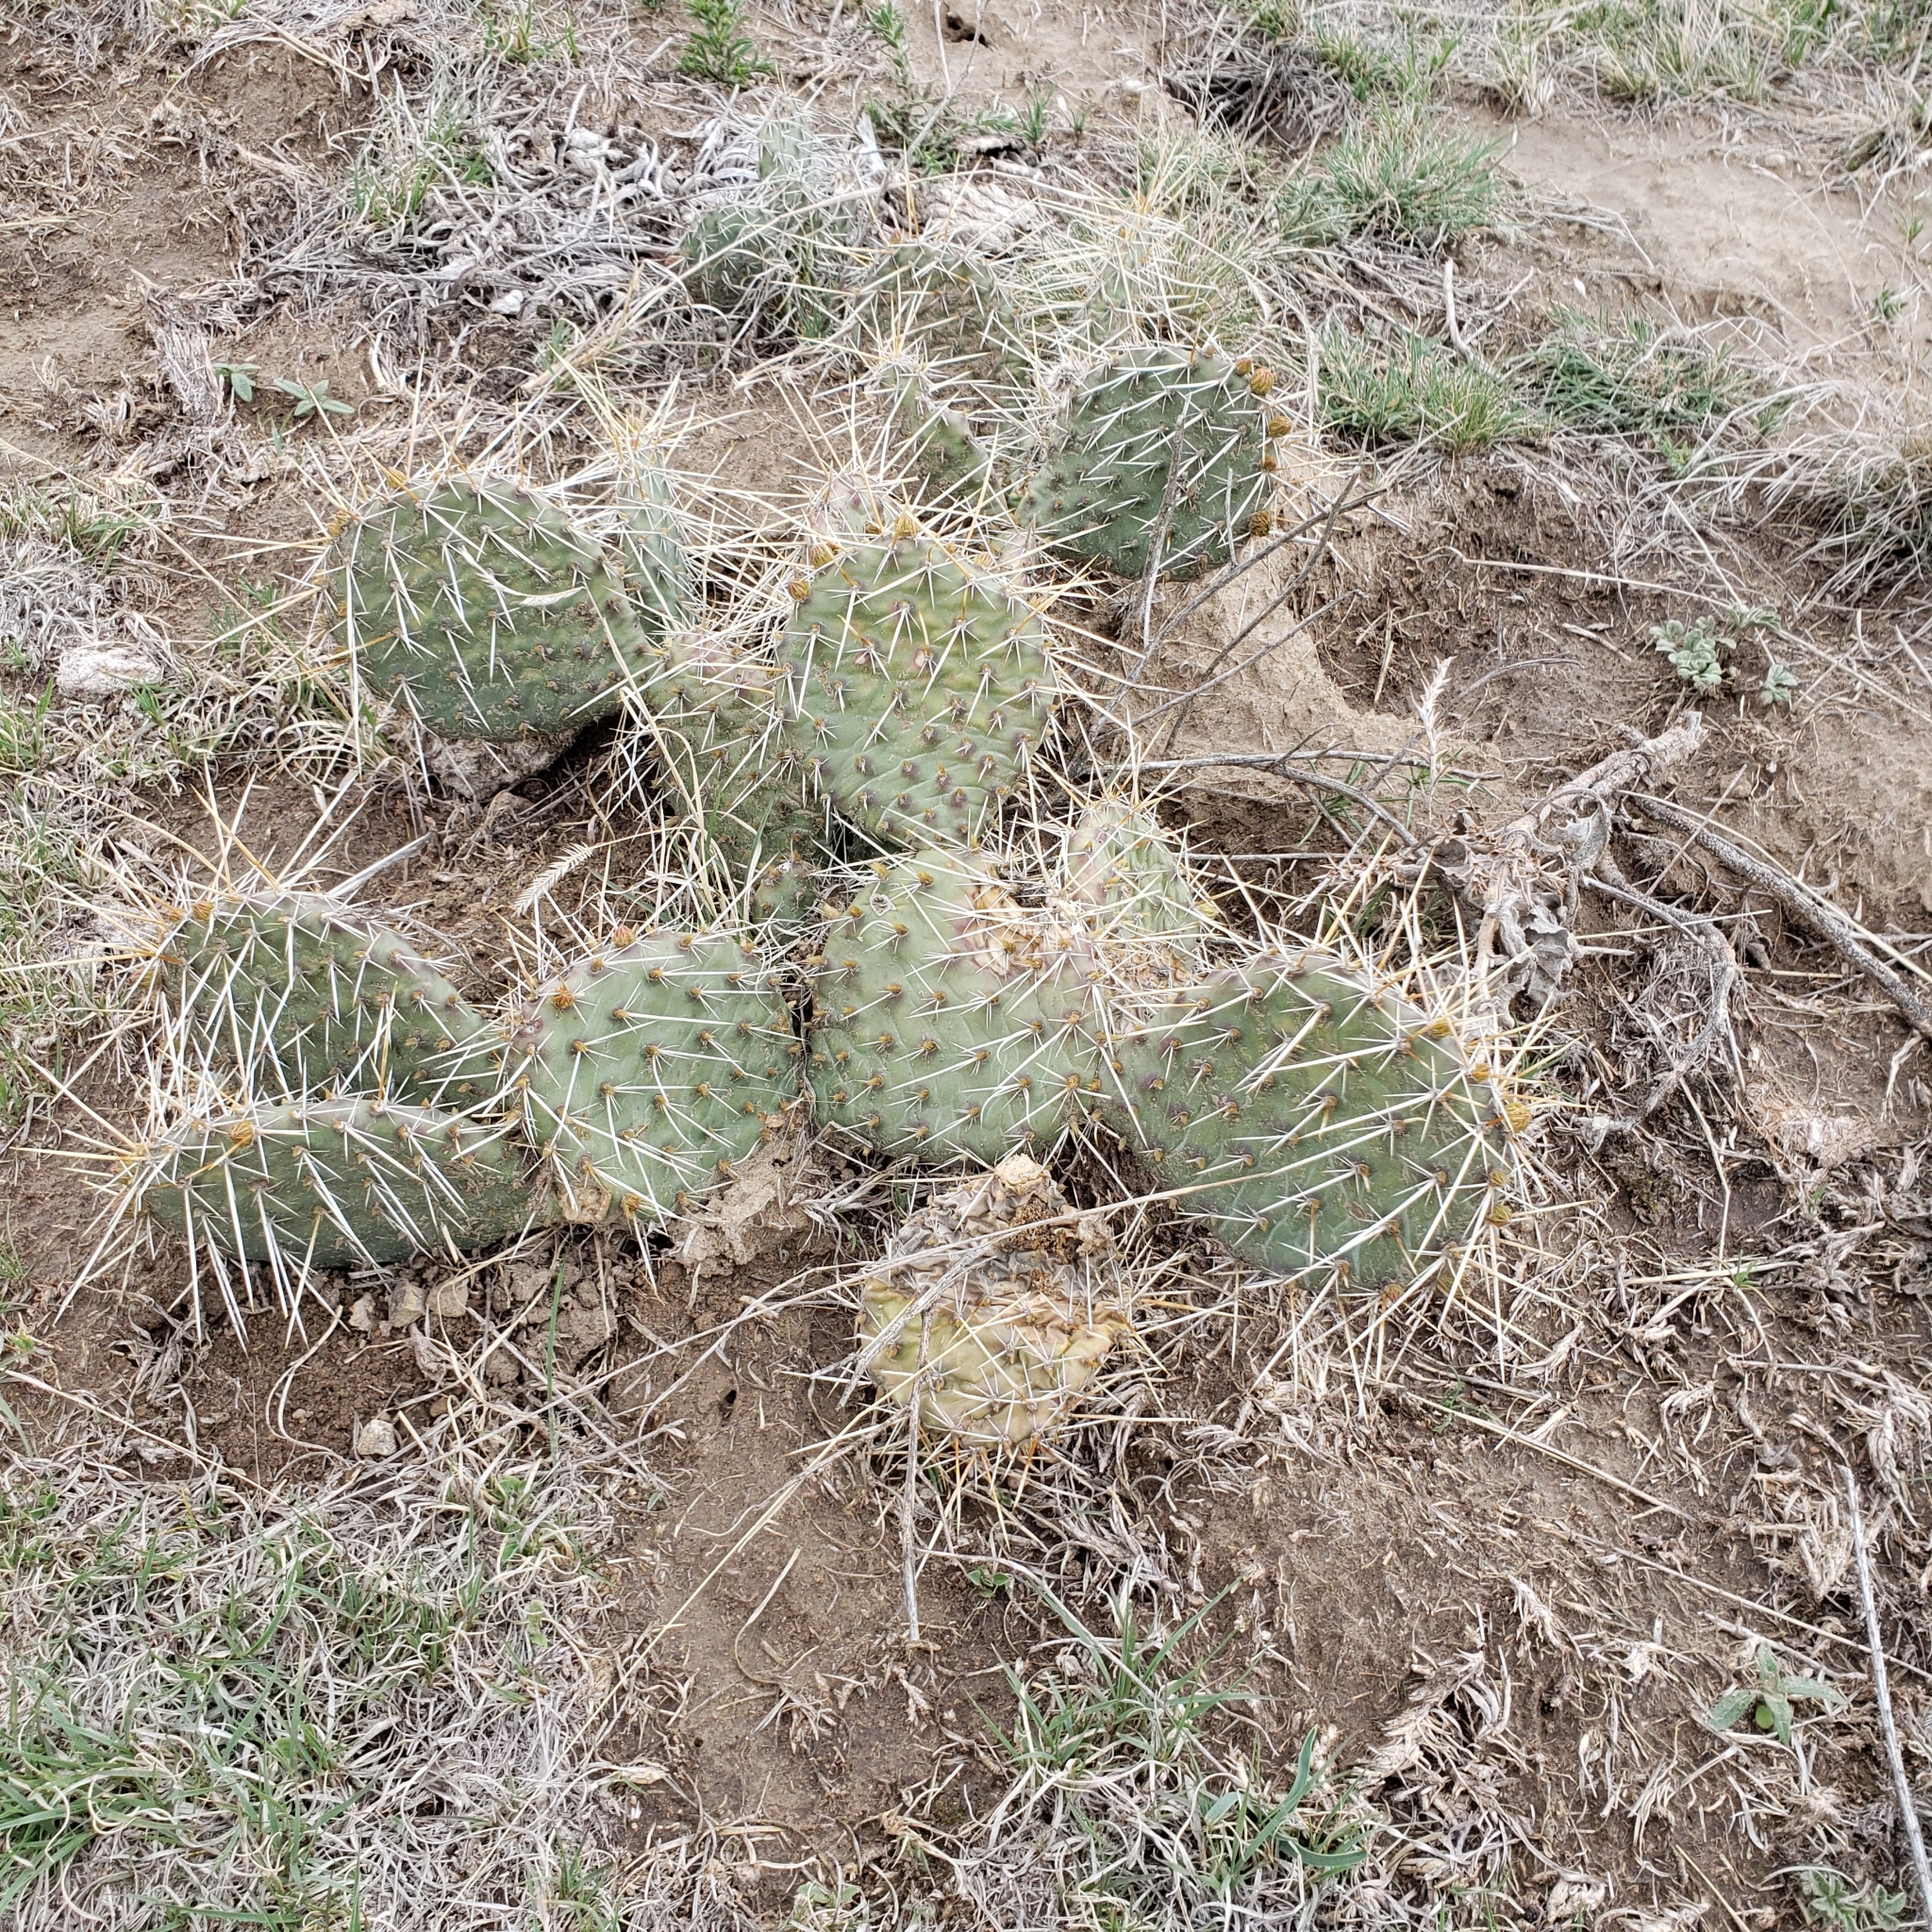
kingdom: Plantae
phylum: Tracheophyta
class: Magnoliopsida
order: Caryophyllales
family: Cactaceae
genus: Opuntia
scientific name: Opuntia cymochila
